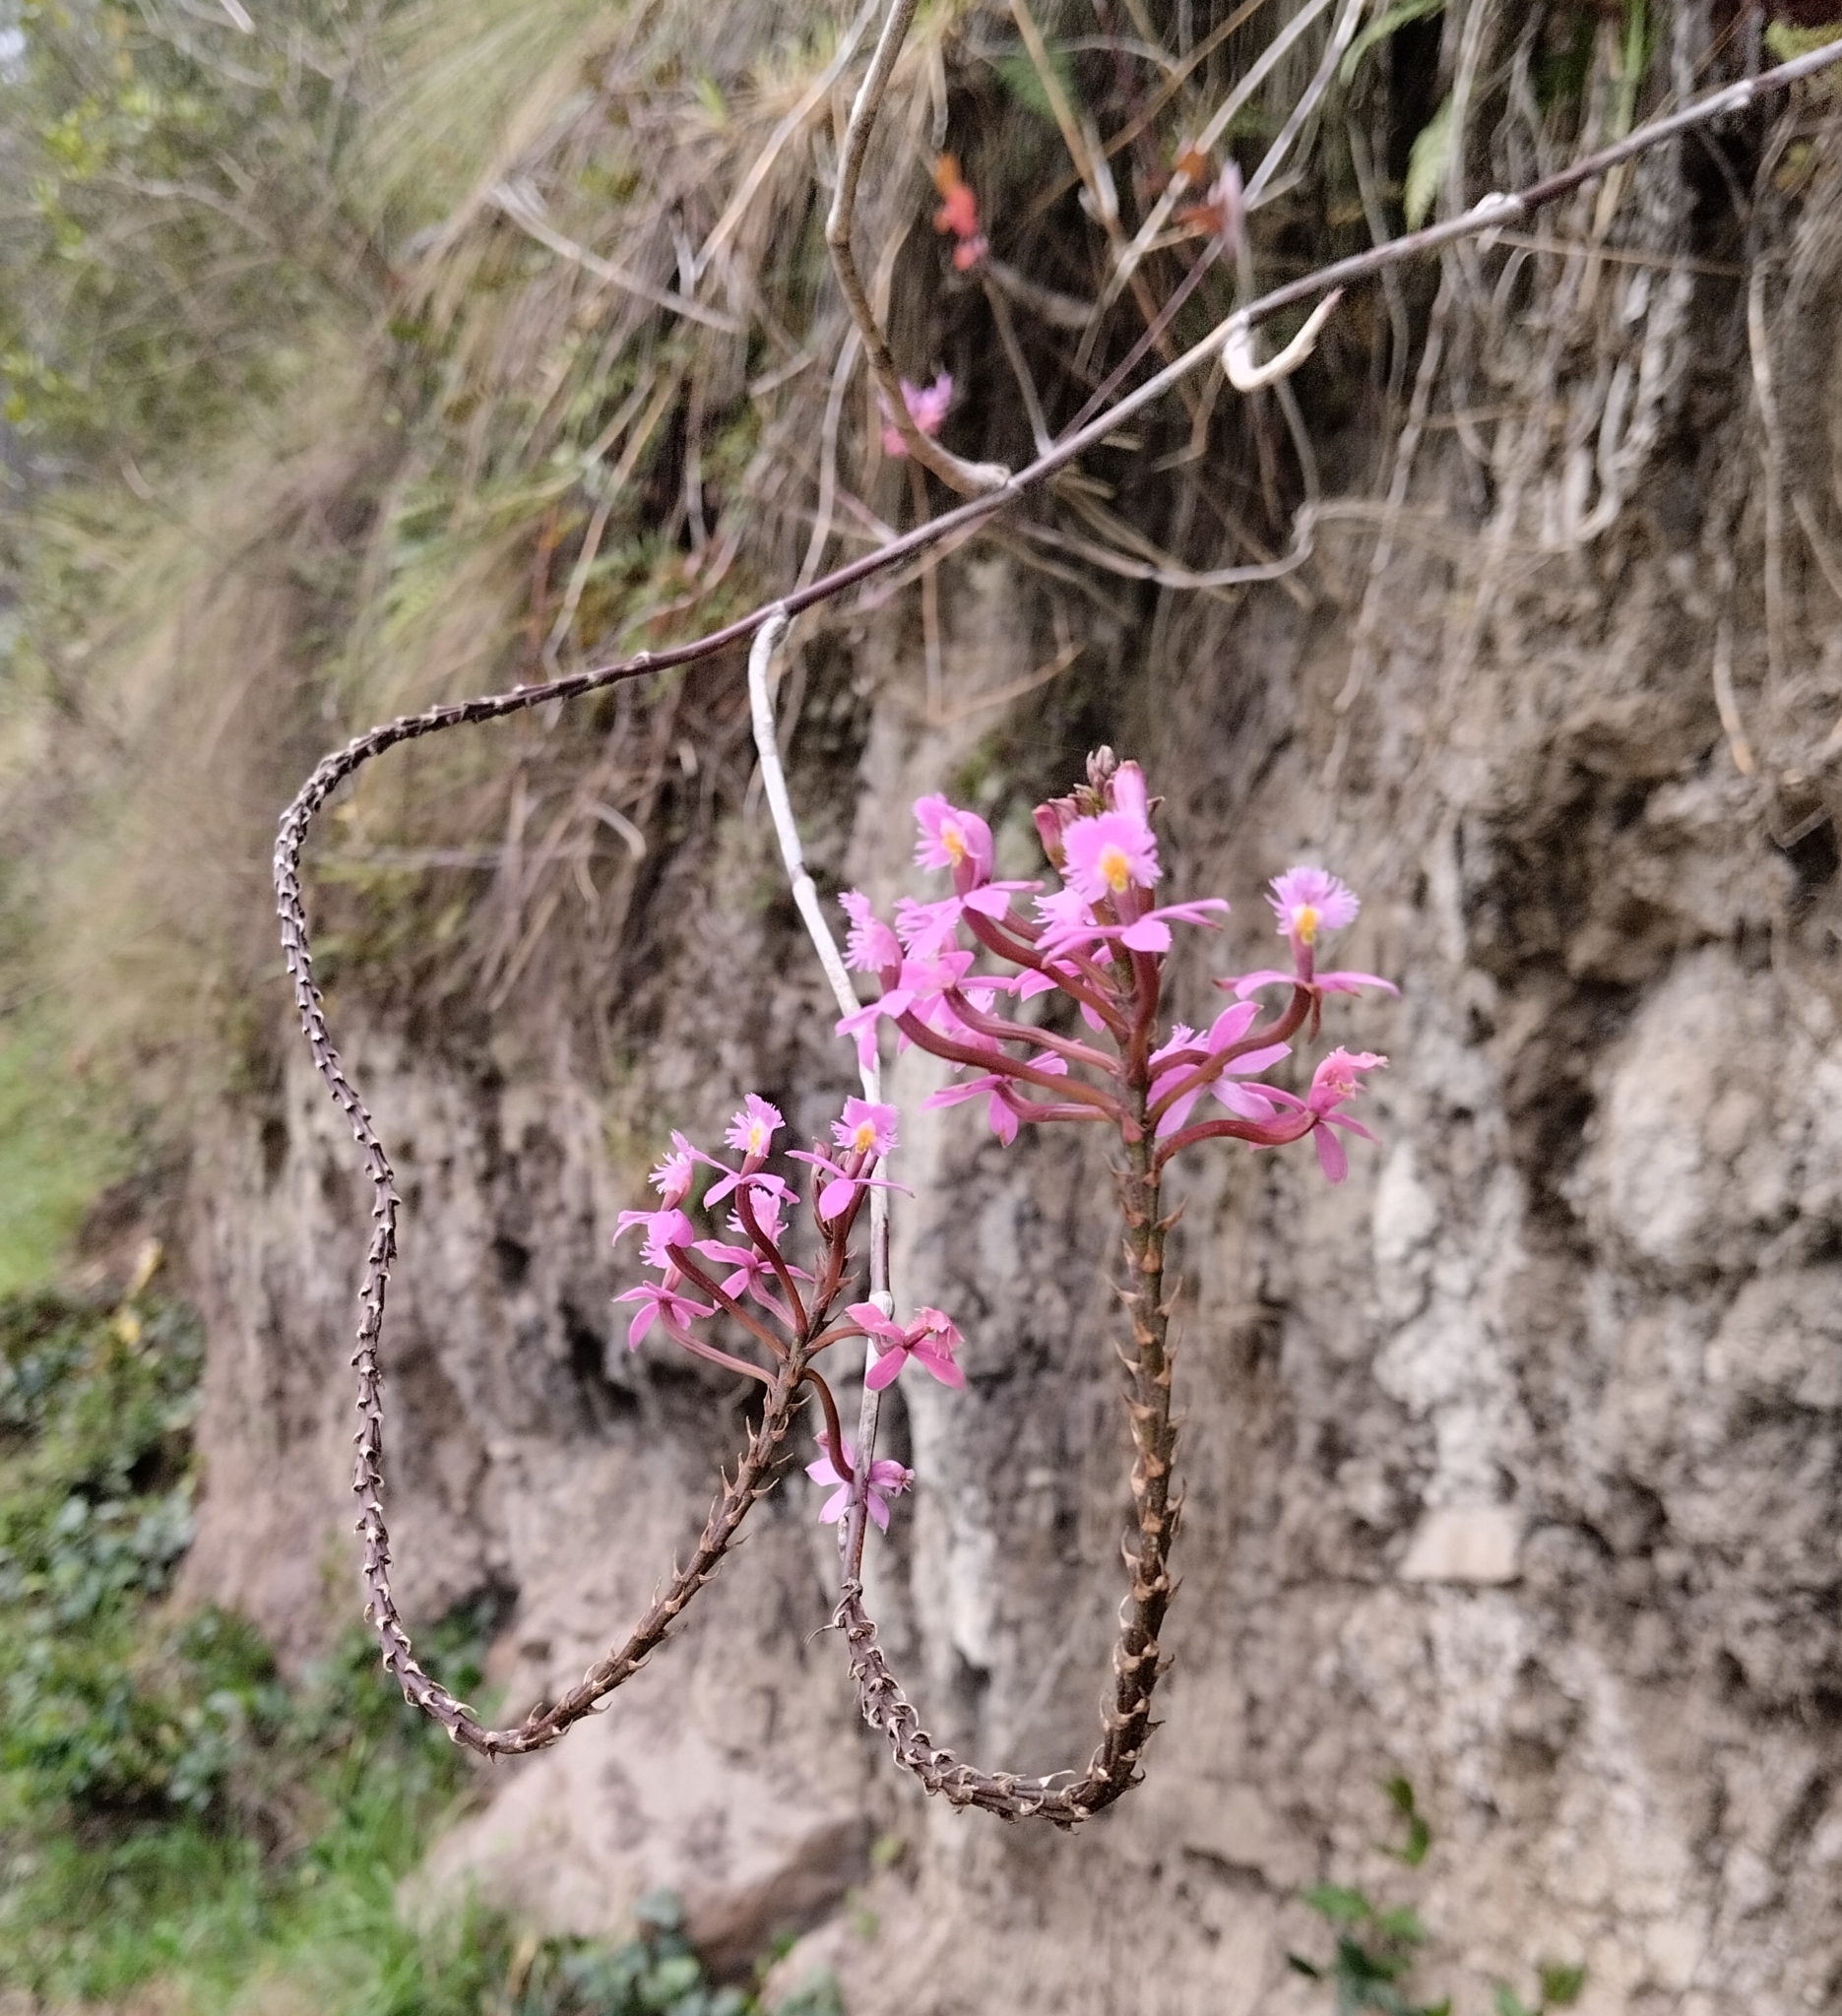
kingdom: Plantae
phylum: Tracheophyta
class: Liliopsida
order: Asparagales
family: Orchidaceae
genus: Epidendrum
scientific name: Epidendrum arachnoglossum
